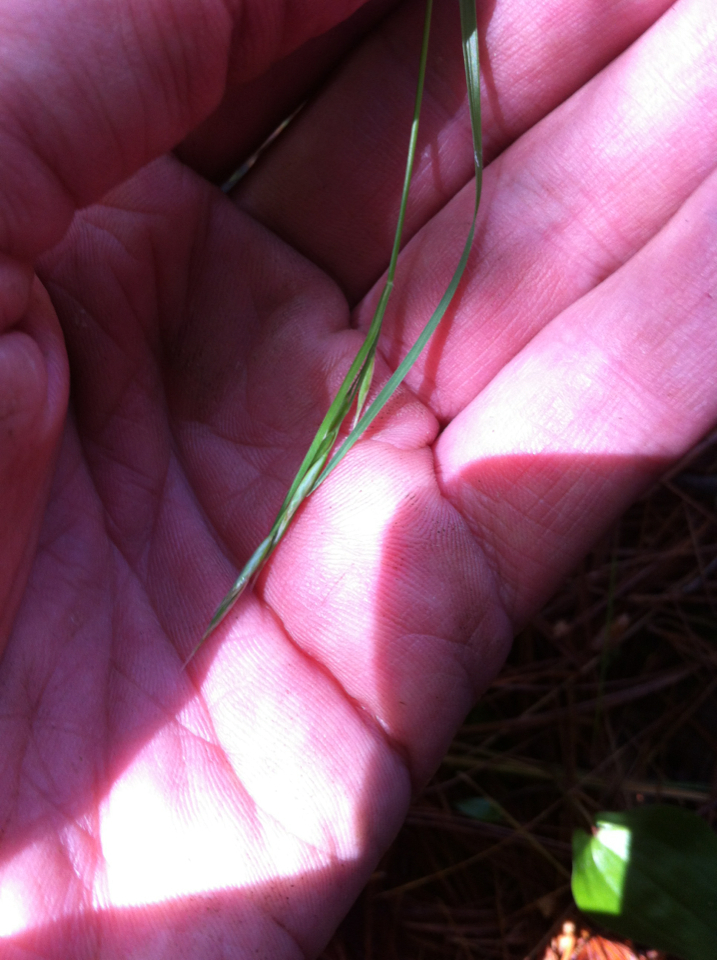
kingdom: Plantae
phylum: Tracheophyta
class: Liliopsida
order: Poales
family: Poaceae
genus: Danthonia
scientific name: Danthonia spicata
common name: Common wild oatgrass
